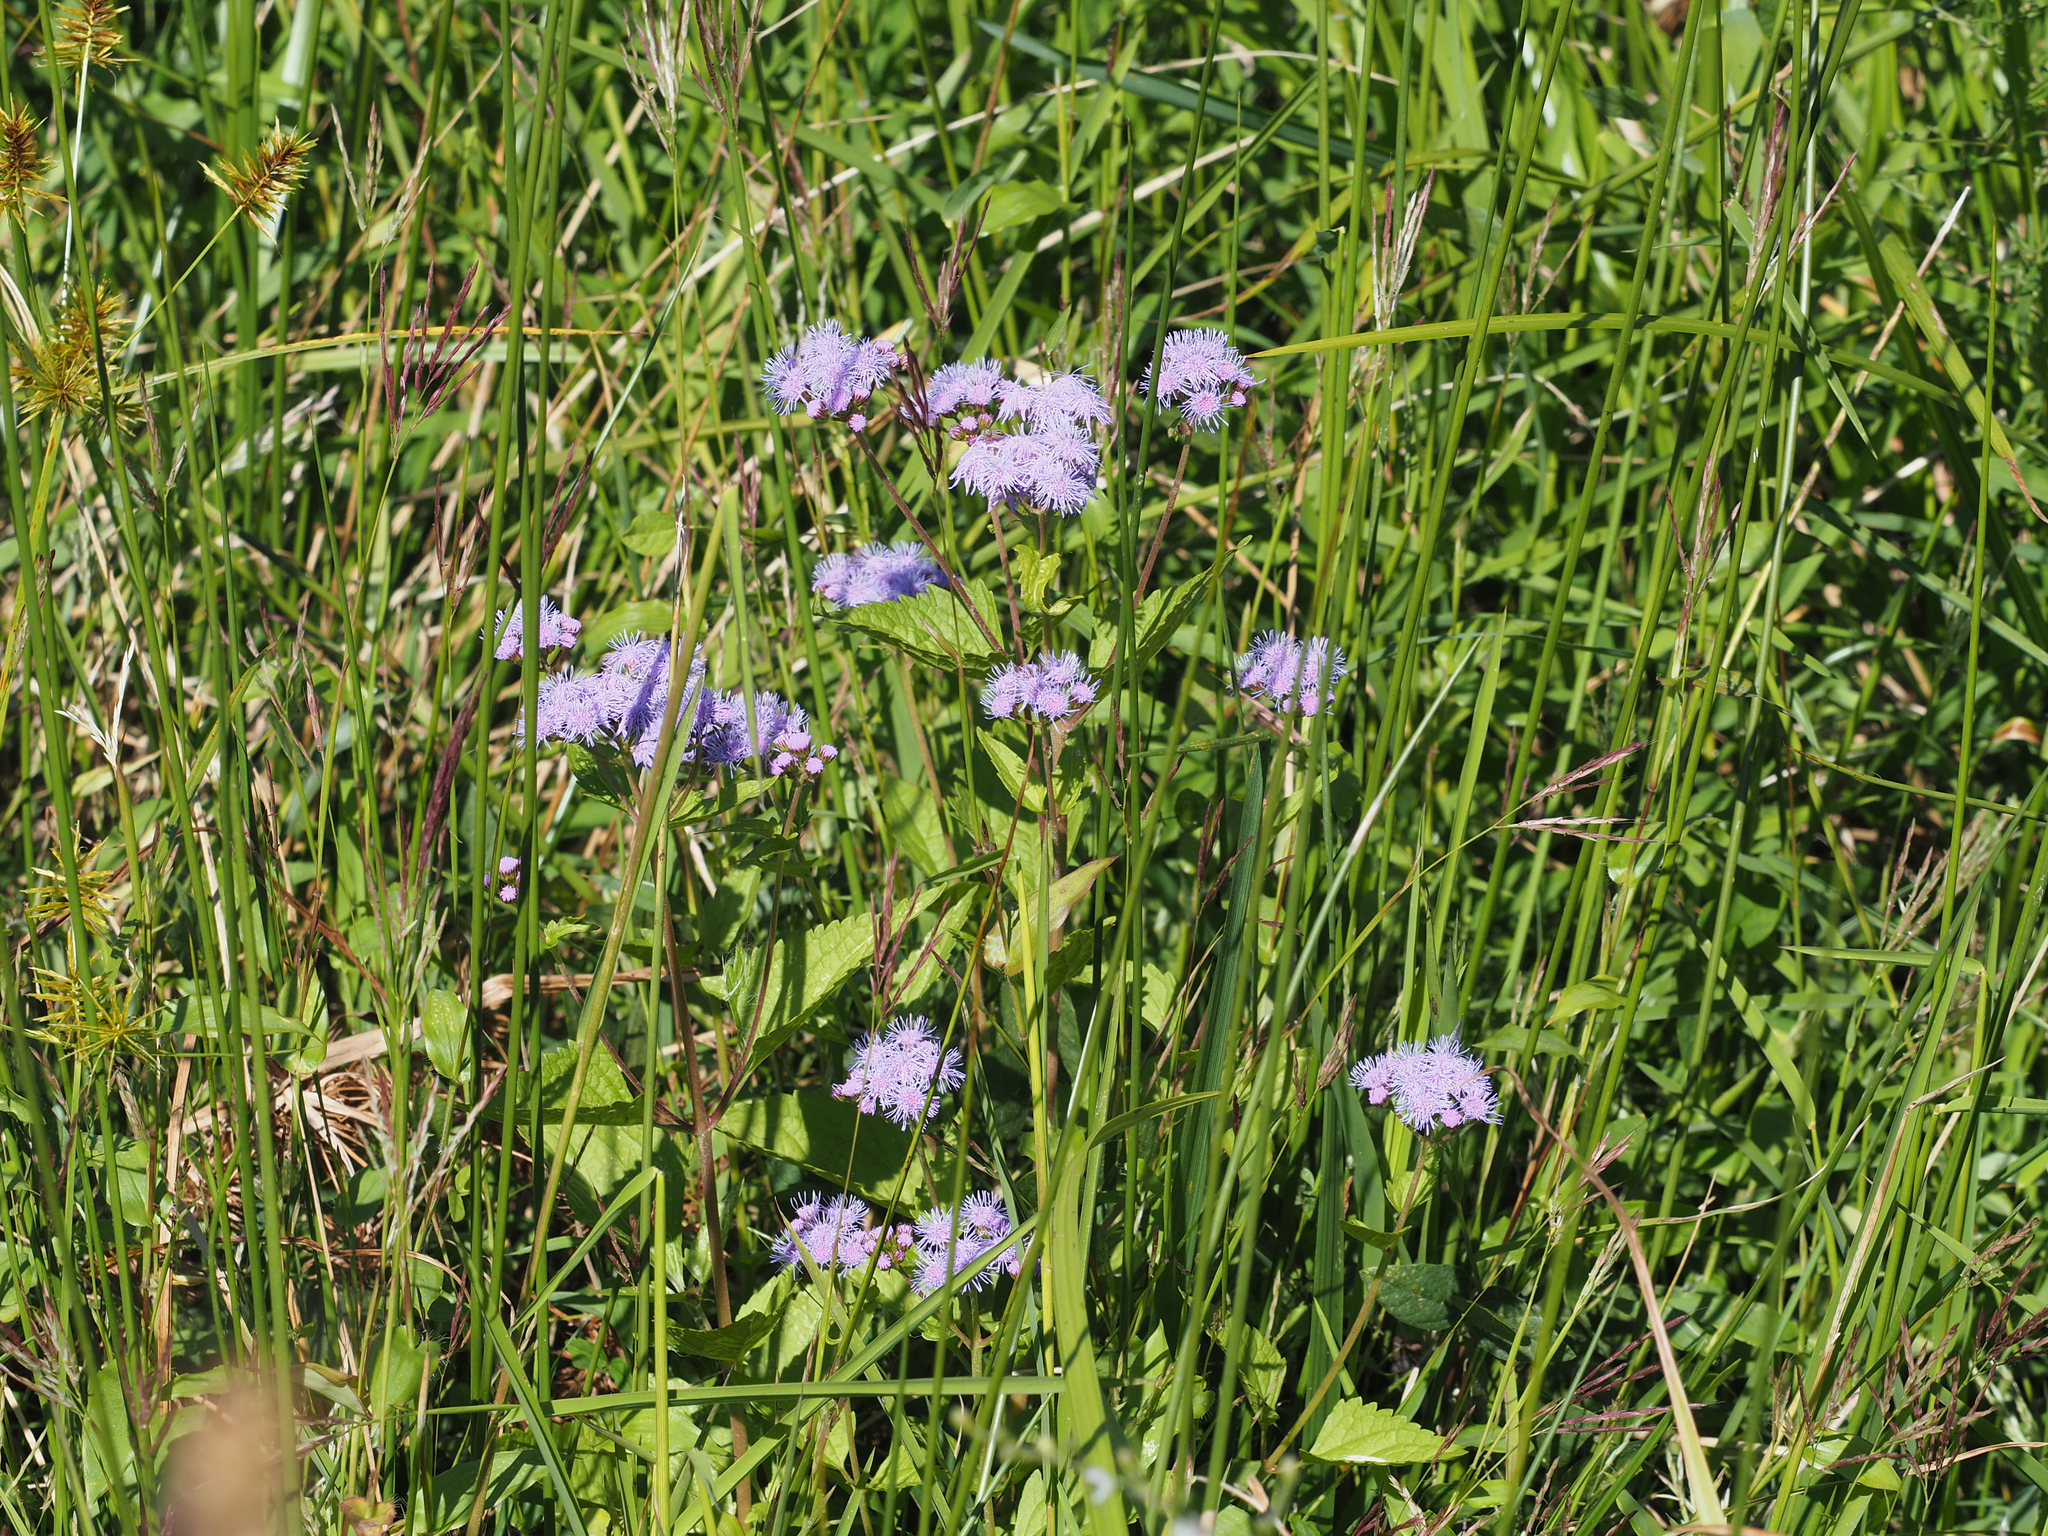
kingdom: Plantae
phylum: Tracheophyta
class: Magnoliopsida
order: Asterales
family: Asteraceae
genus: Conoclinium
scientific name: Conoclinium coelestinum
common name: Blue mistflower
